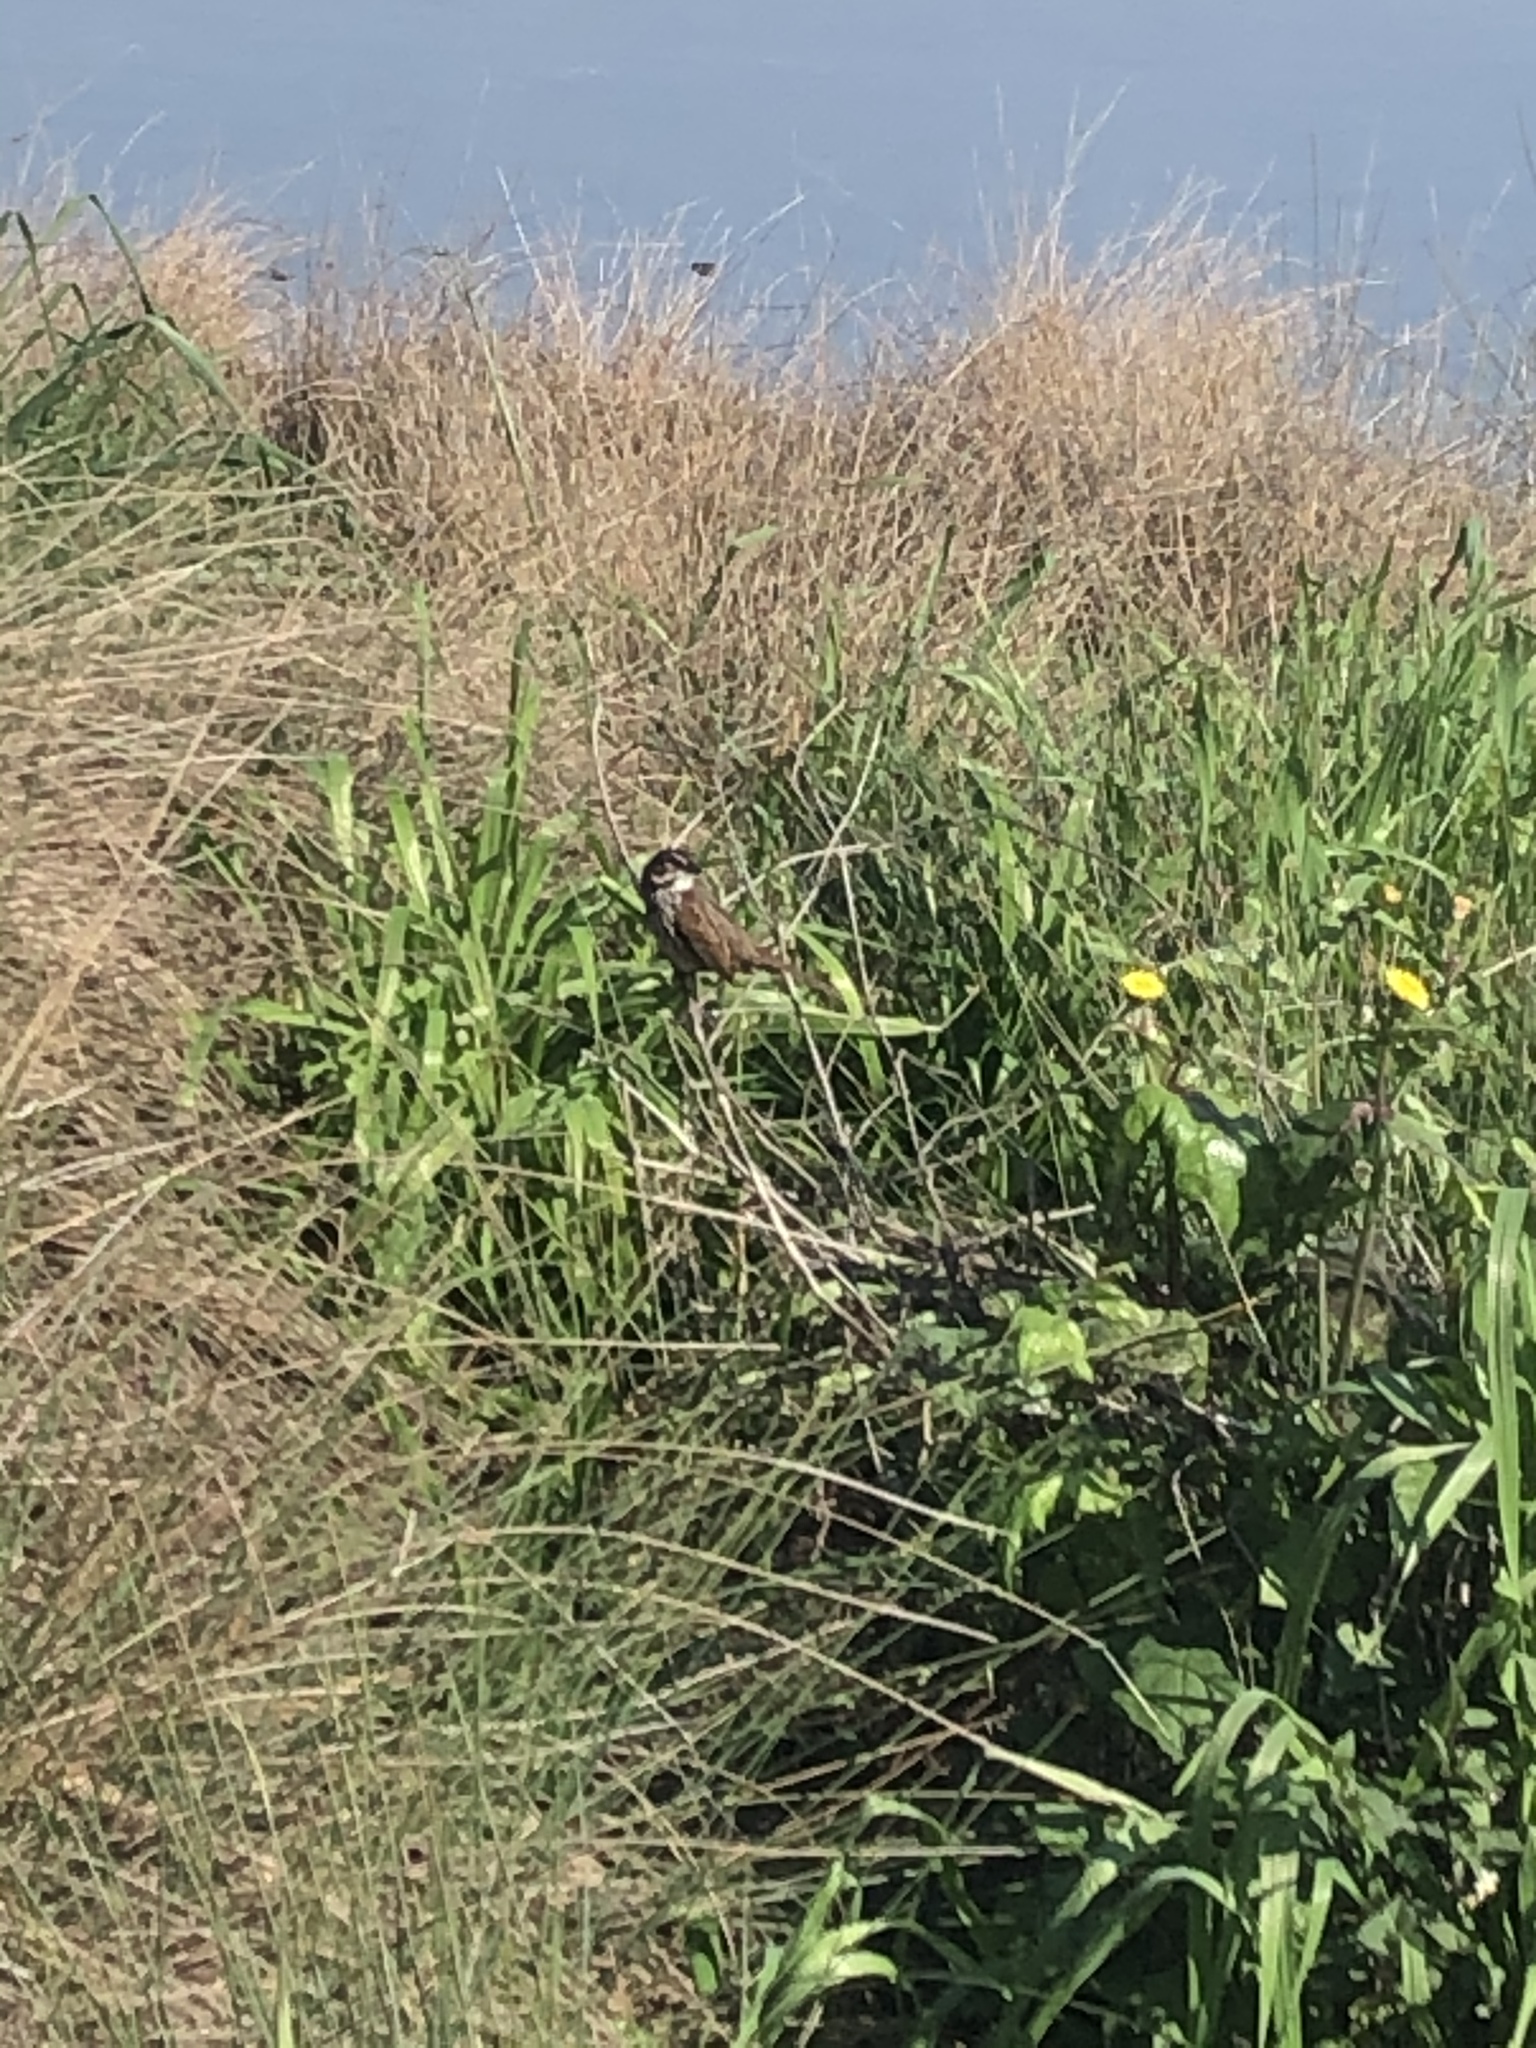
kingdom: Animalia
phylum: Chordata
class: Aves
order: Passeriformes
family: Passerellidae
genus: Melospiza
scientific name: Melospiza melodia
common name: Song sparrow
